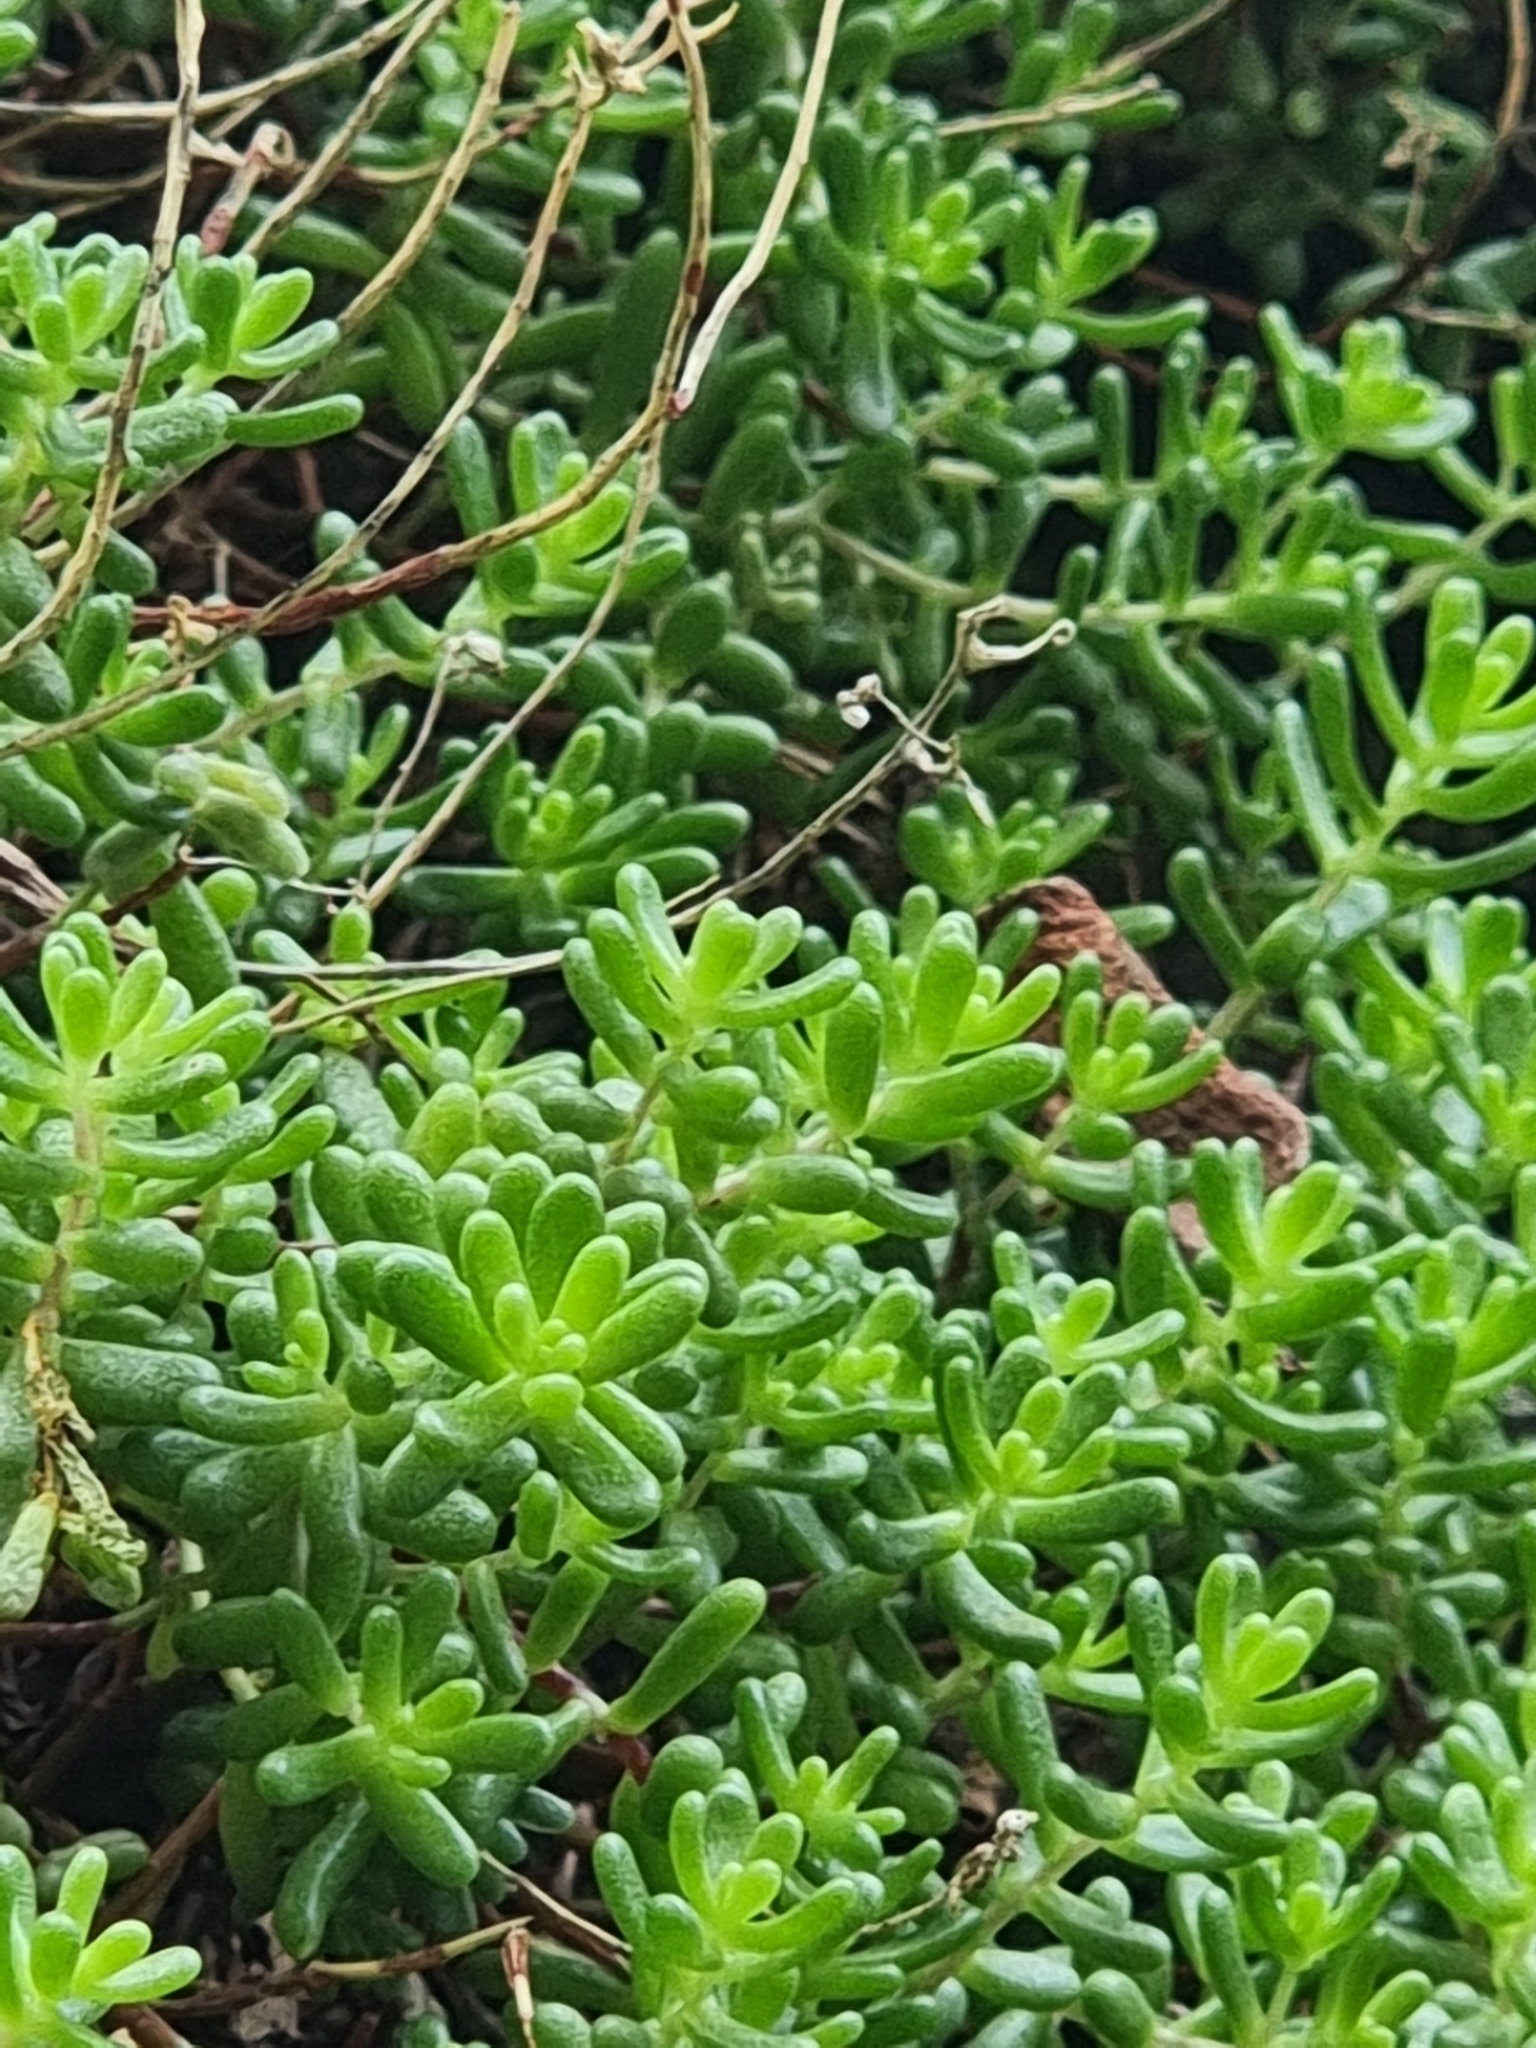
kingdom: Plantae
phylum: Tracheophyta
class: Magnoliopsida
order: Saxifragales
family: Crassulaceae
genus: Sedum
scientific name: Sedum nudum
